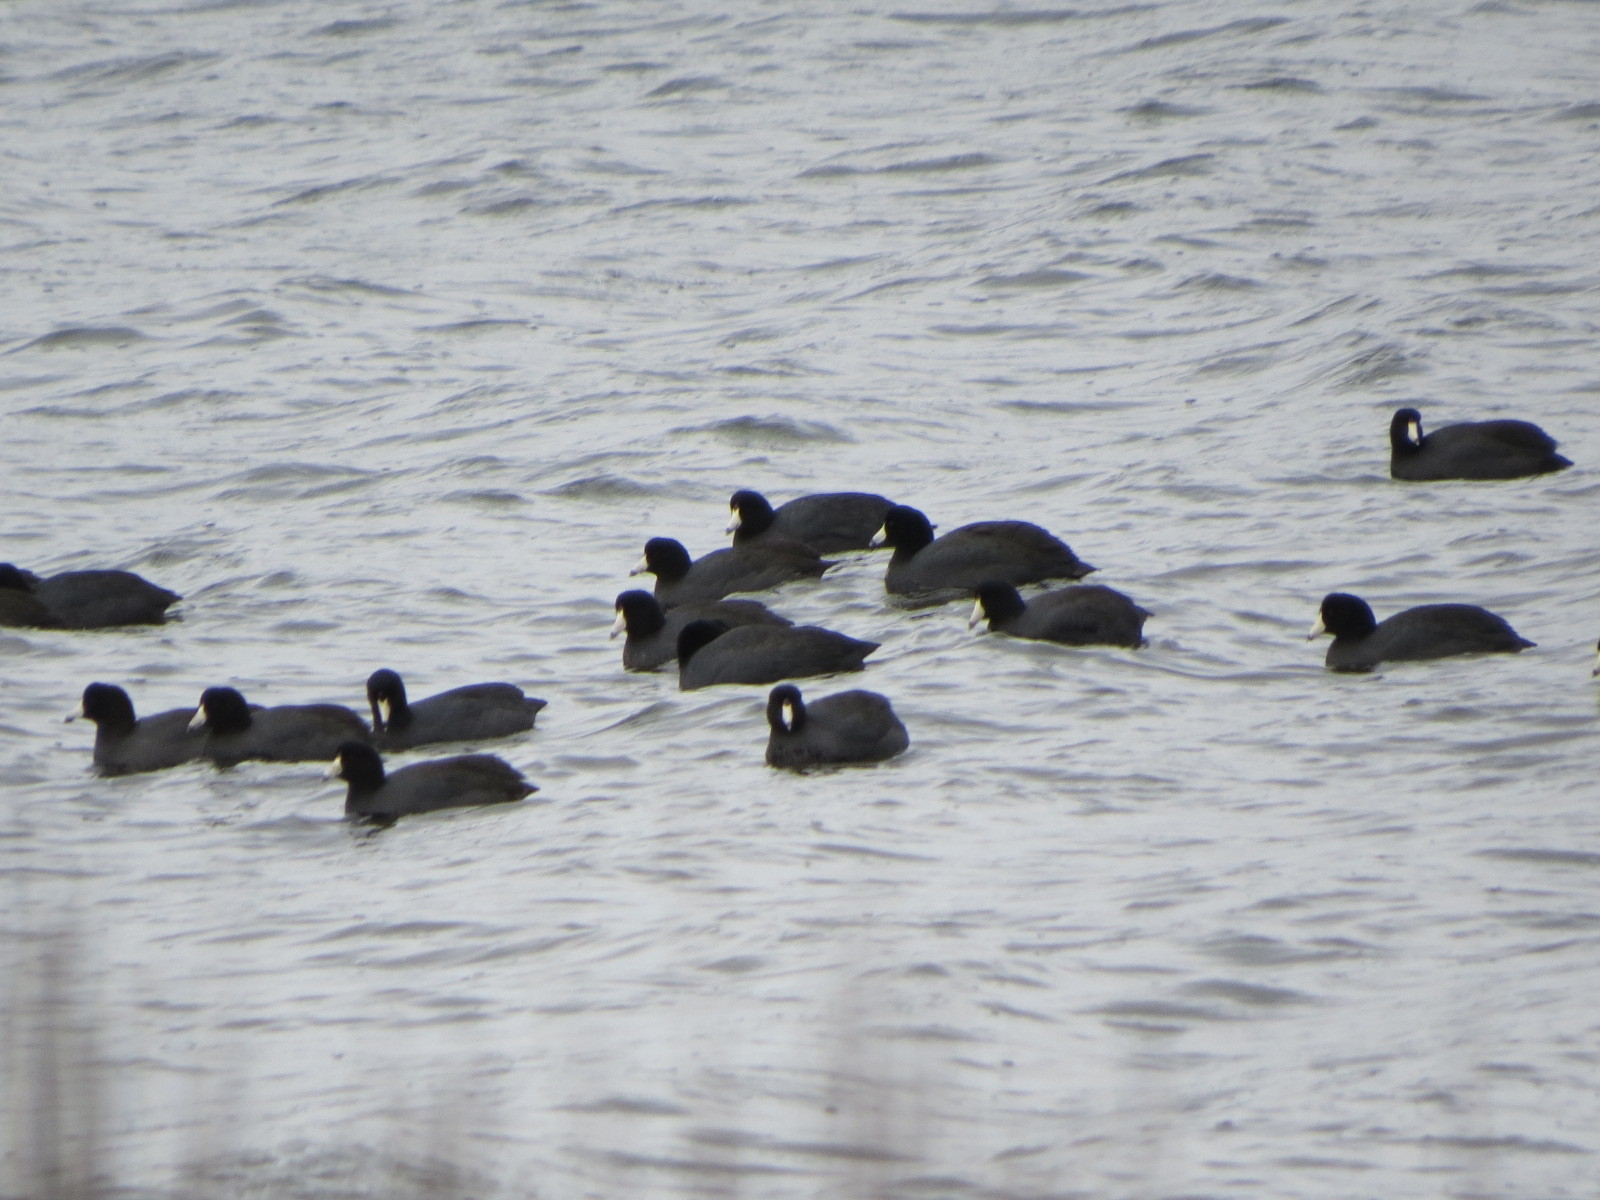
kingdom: Animalia
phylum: Chordata
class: Aves
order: Gruiformes
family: Rallidae
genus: Fulica
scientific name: Fulica americana
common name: American coot
